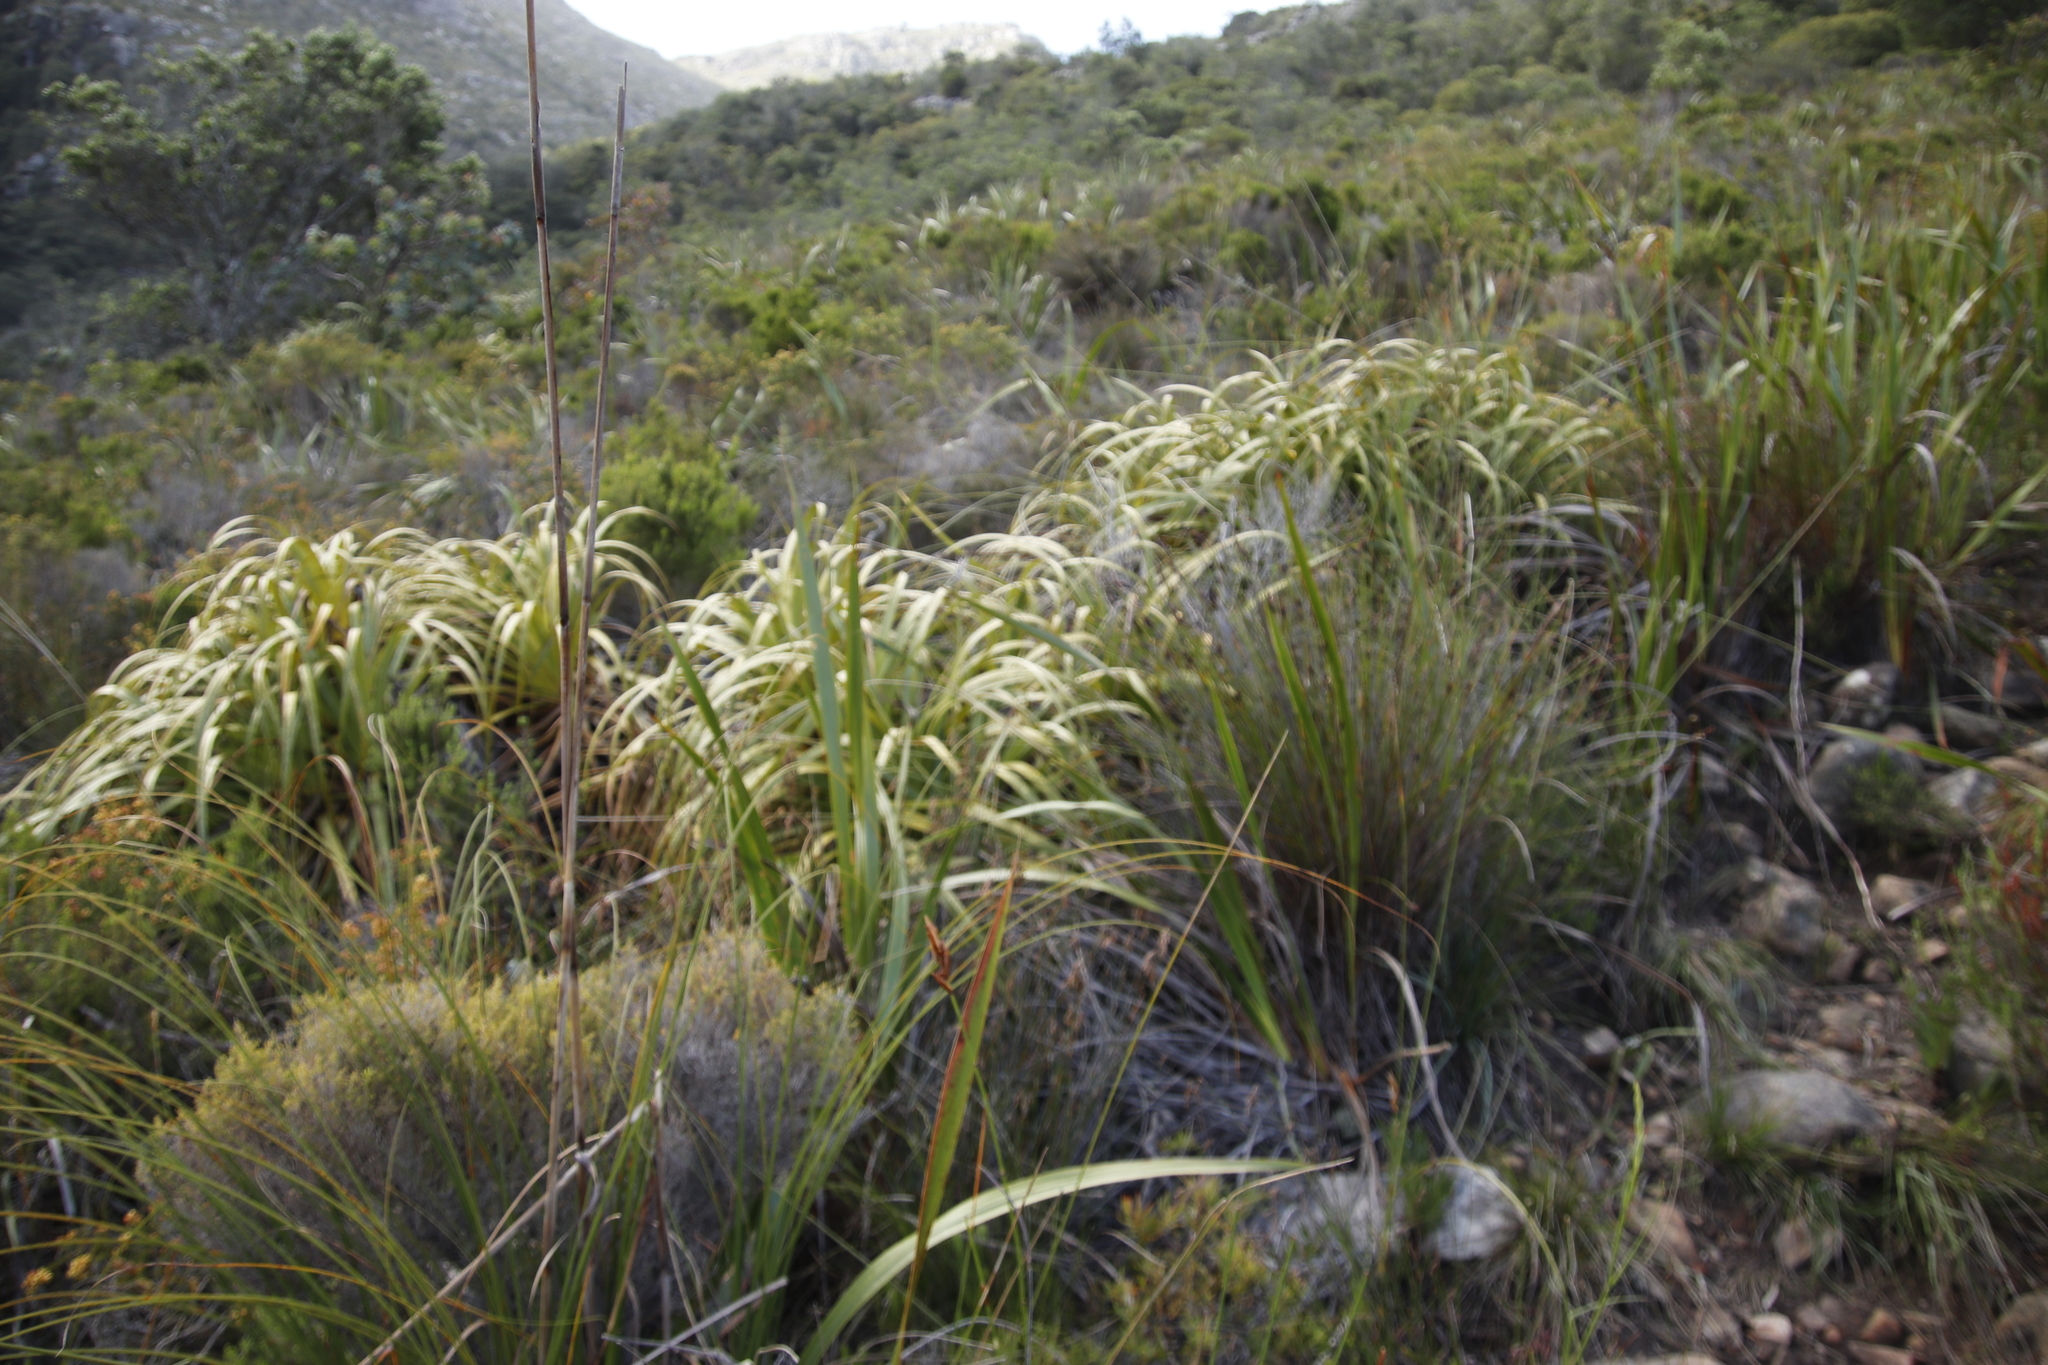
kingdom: Plantae
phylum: Tracheophyta
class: Liliopsida
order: Poales
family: Cyperaceae
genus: Tetraria
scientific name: Tetraria thermalis
